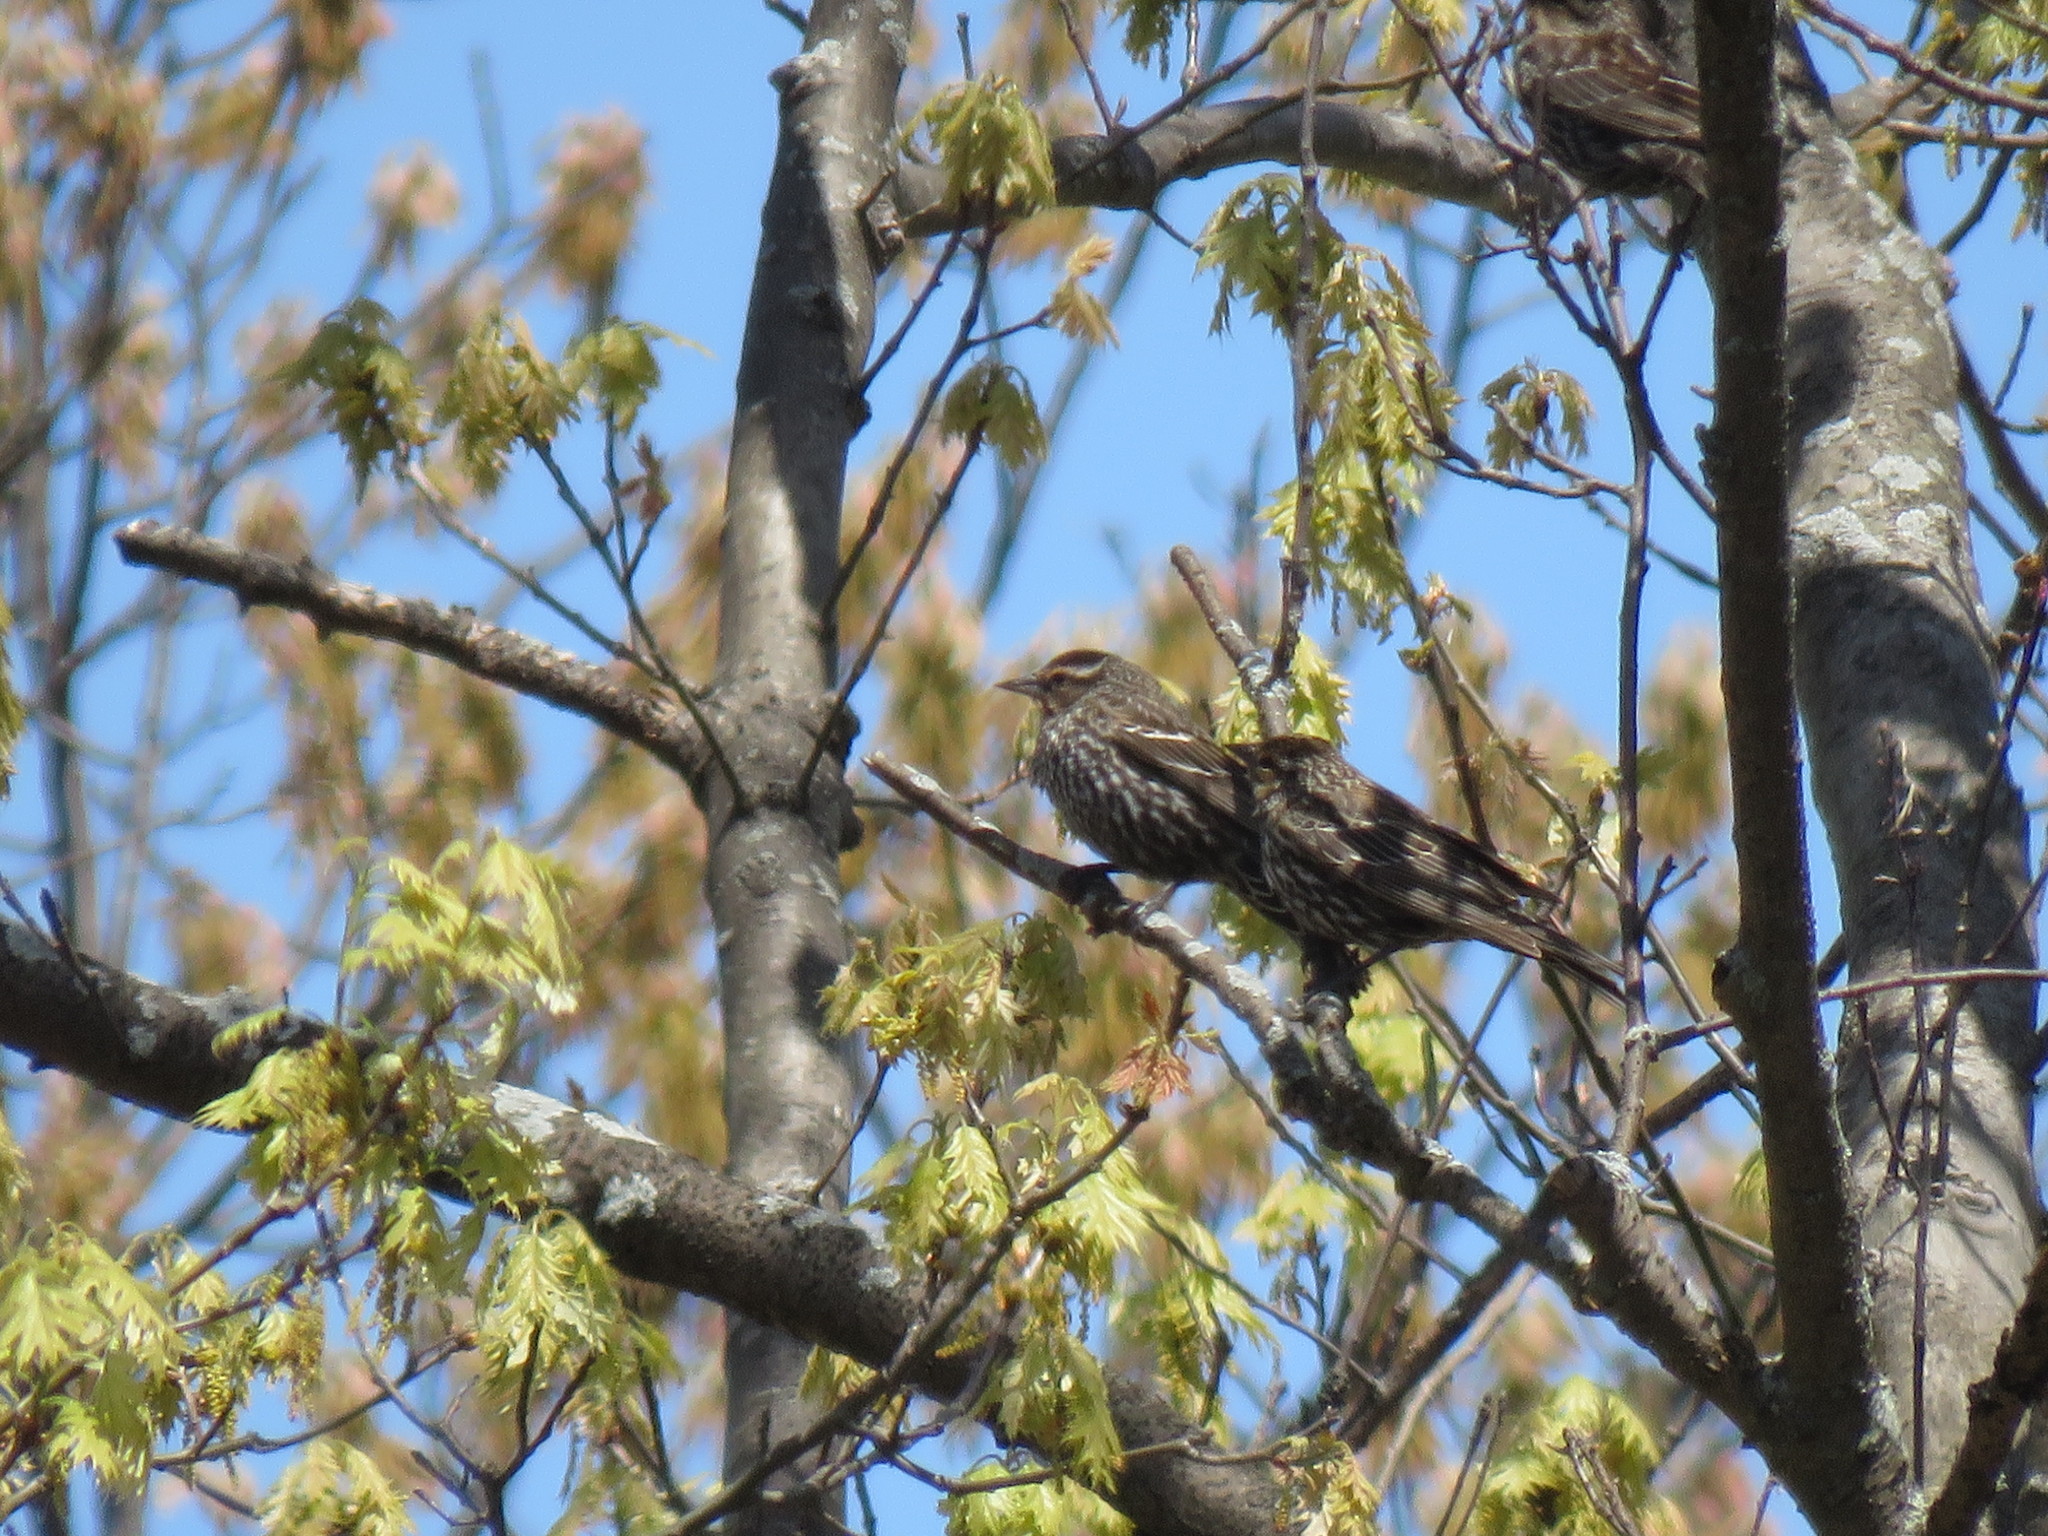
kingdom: Animalia
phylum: Chordata
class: Aves
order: Passeriformes
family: Icteridae
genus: Agelaius
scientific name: Agelaius phoeniceus
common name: Red-winged blackbird
